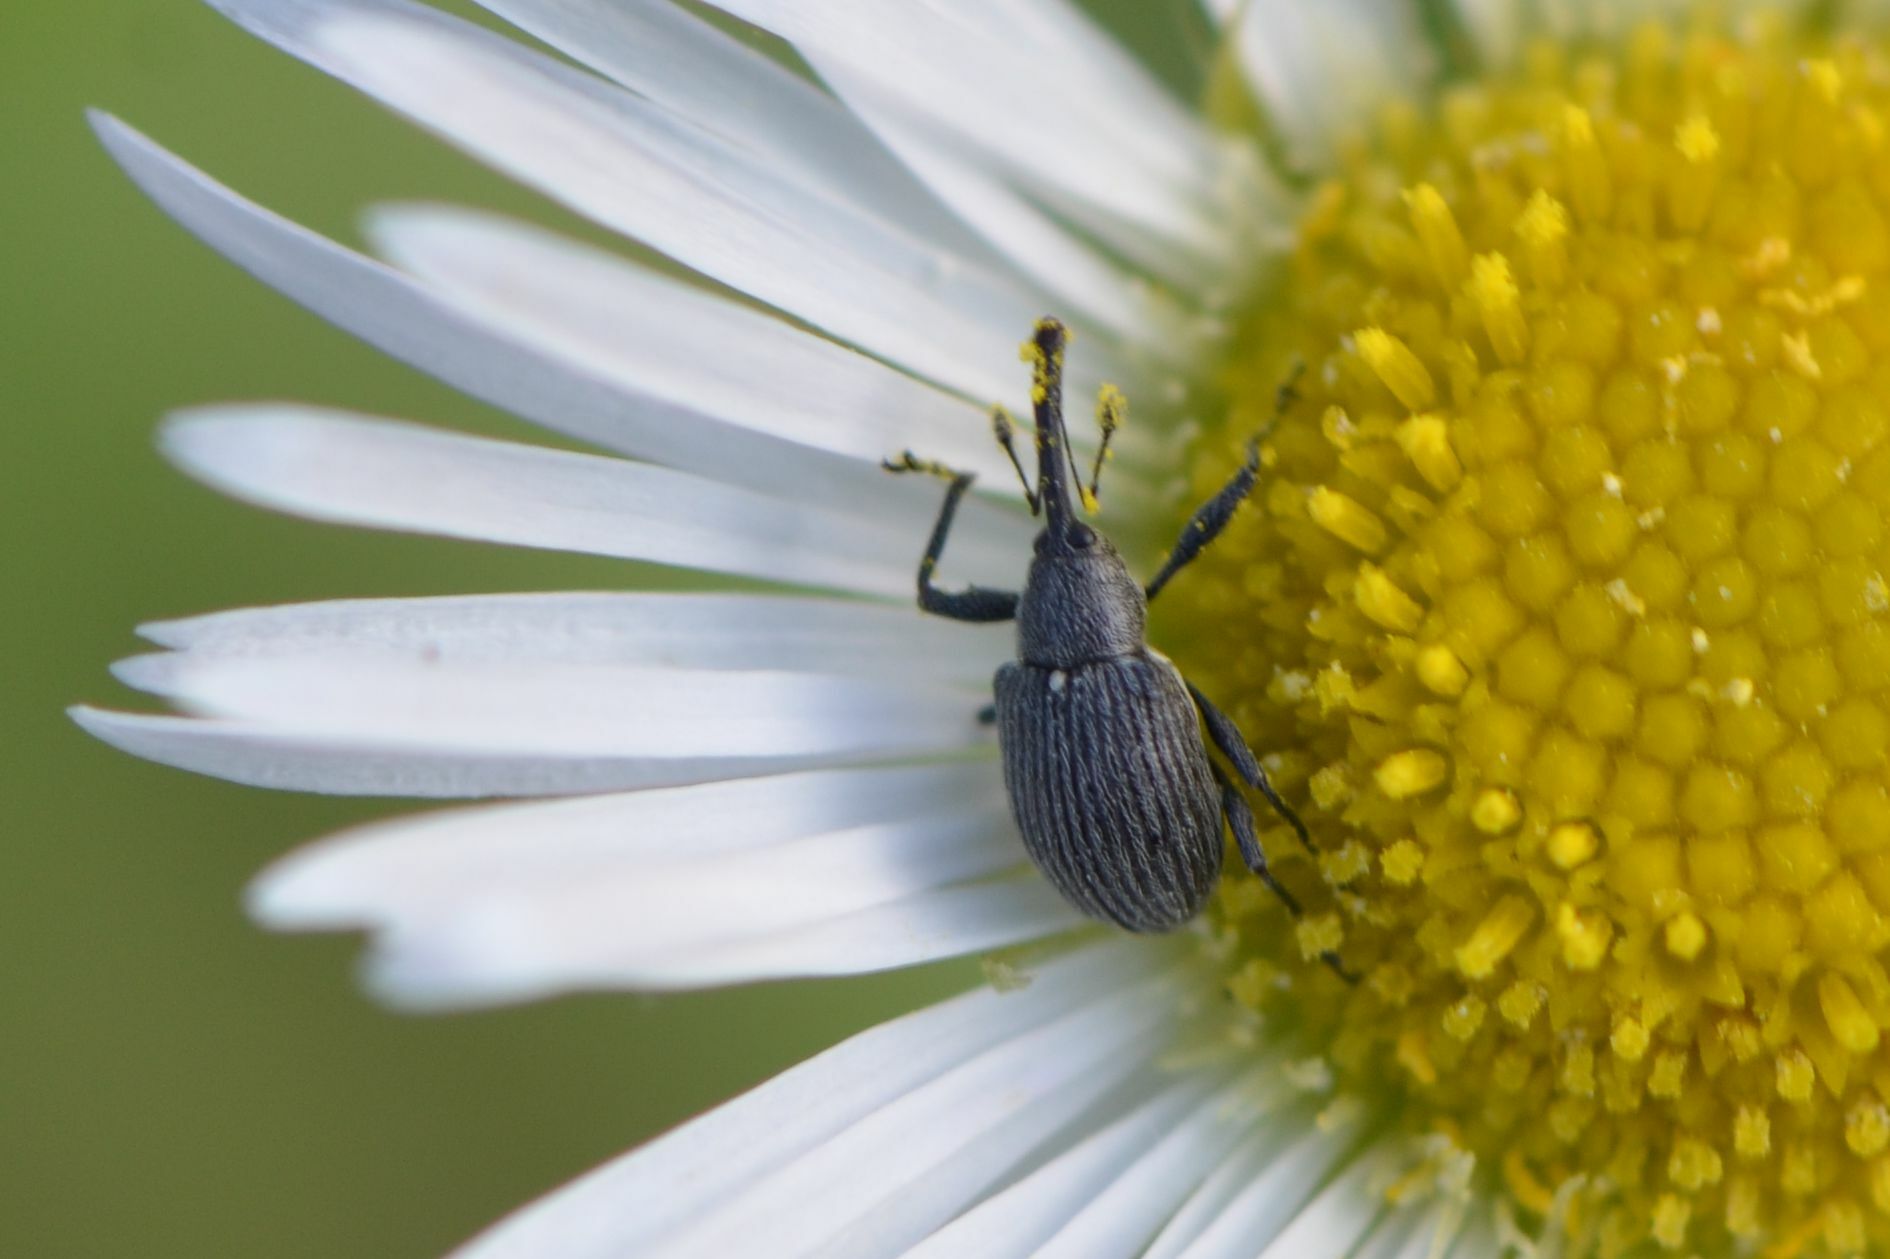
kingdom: Animalia
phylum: Arthropoda
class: Insecta
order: Coleoptera
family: Curculionidae
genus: Anthonomus
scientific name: Anthonomus rubi
